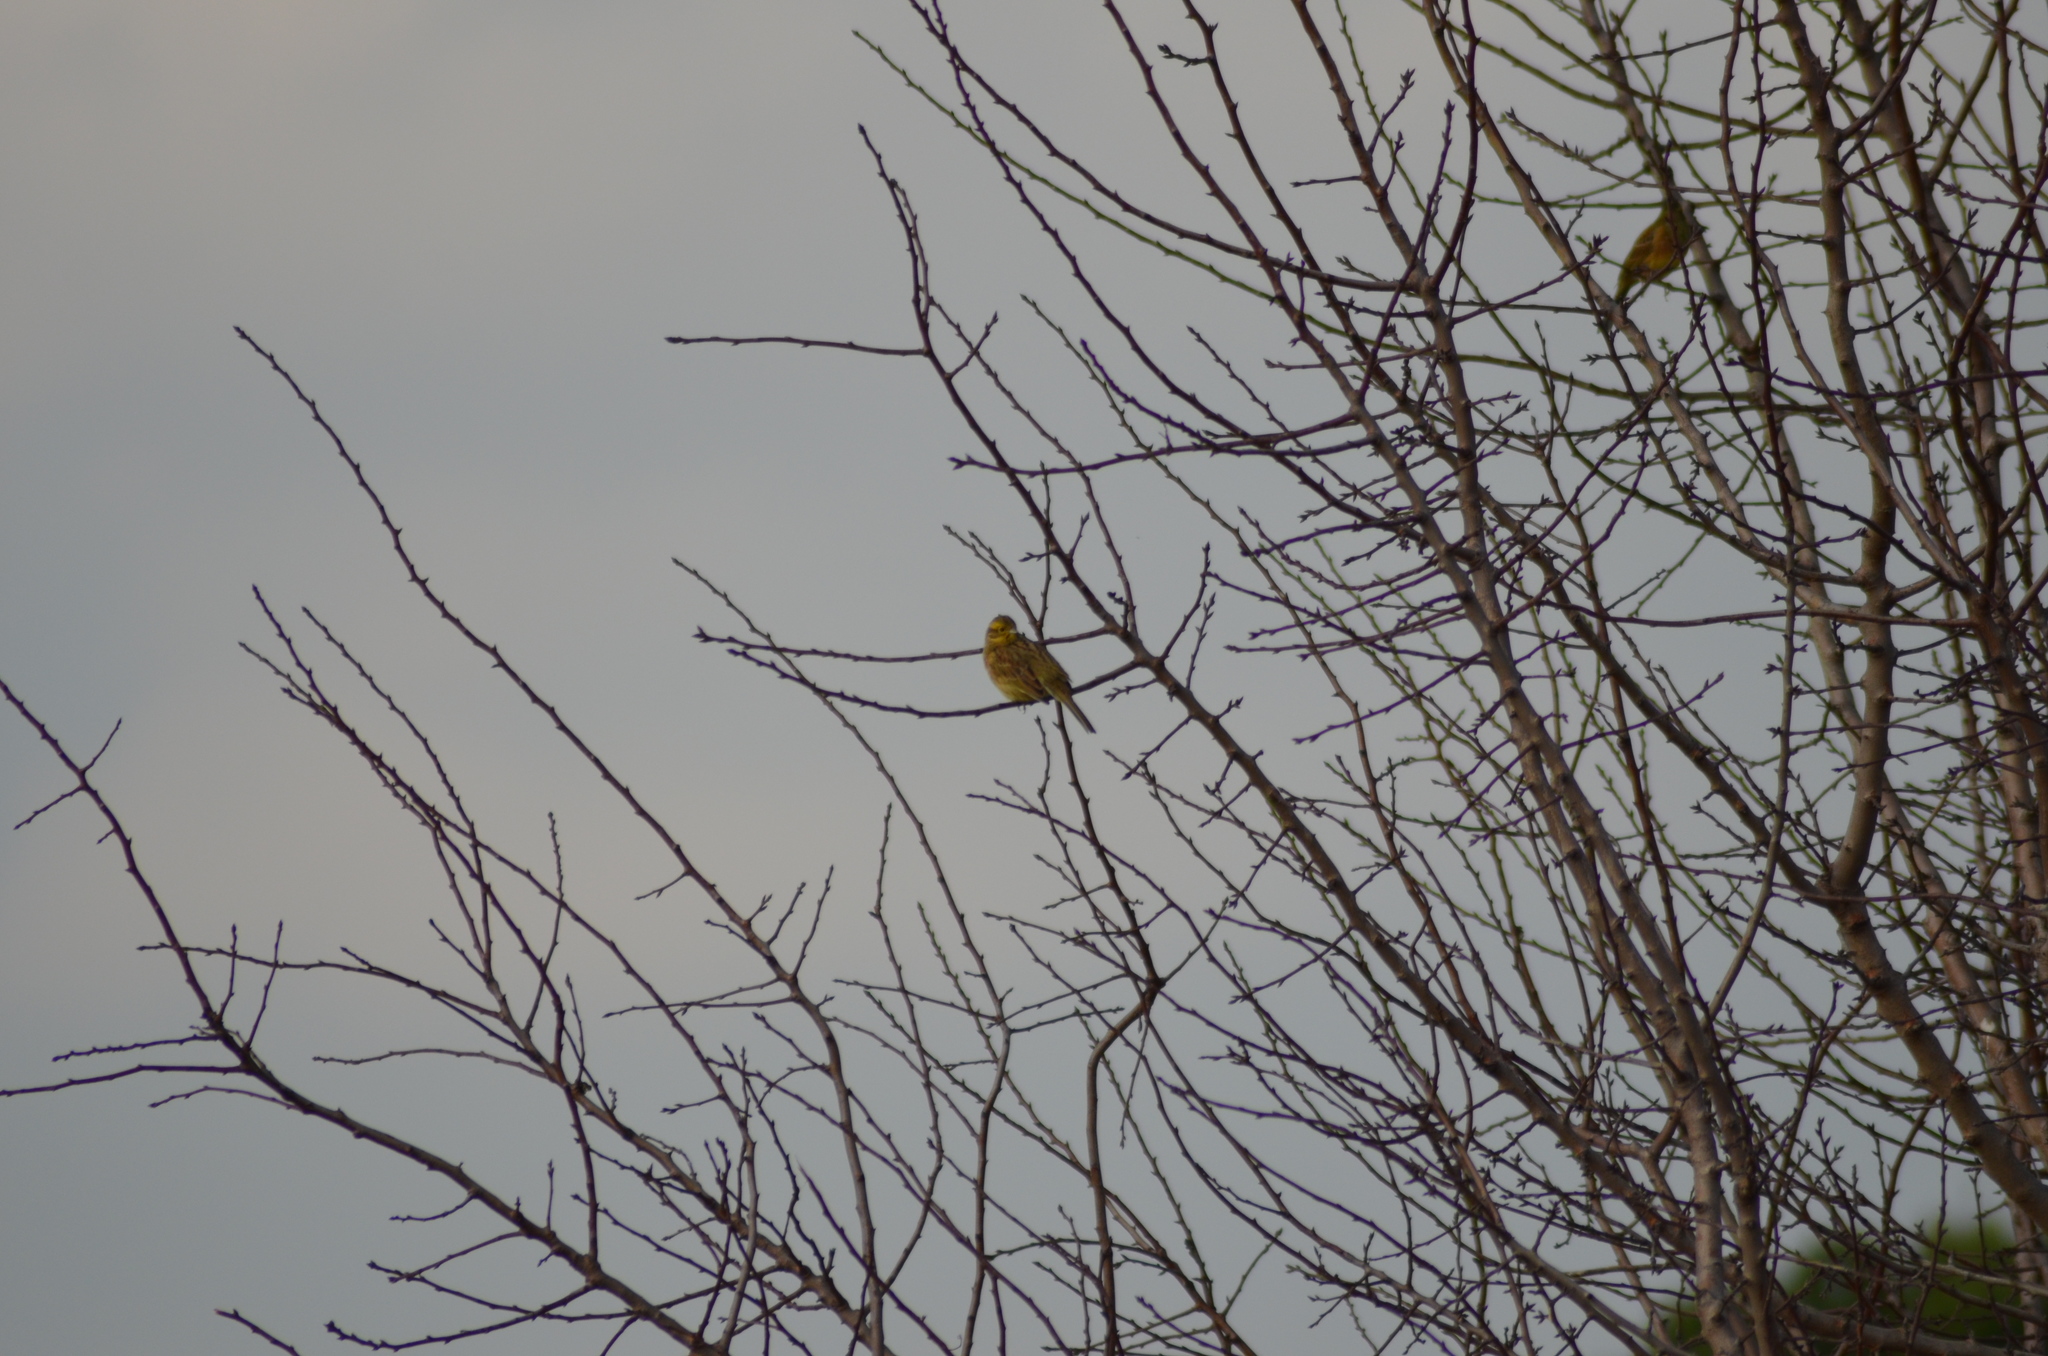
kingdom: Animalia
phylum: Chordata
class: Aves
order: Passeriformes
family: Emberizidae
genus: Emberiza
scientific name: Emberiza cirlus
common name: Cirl bunting
